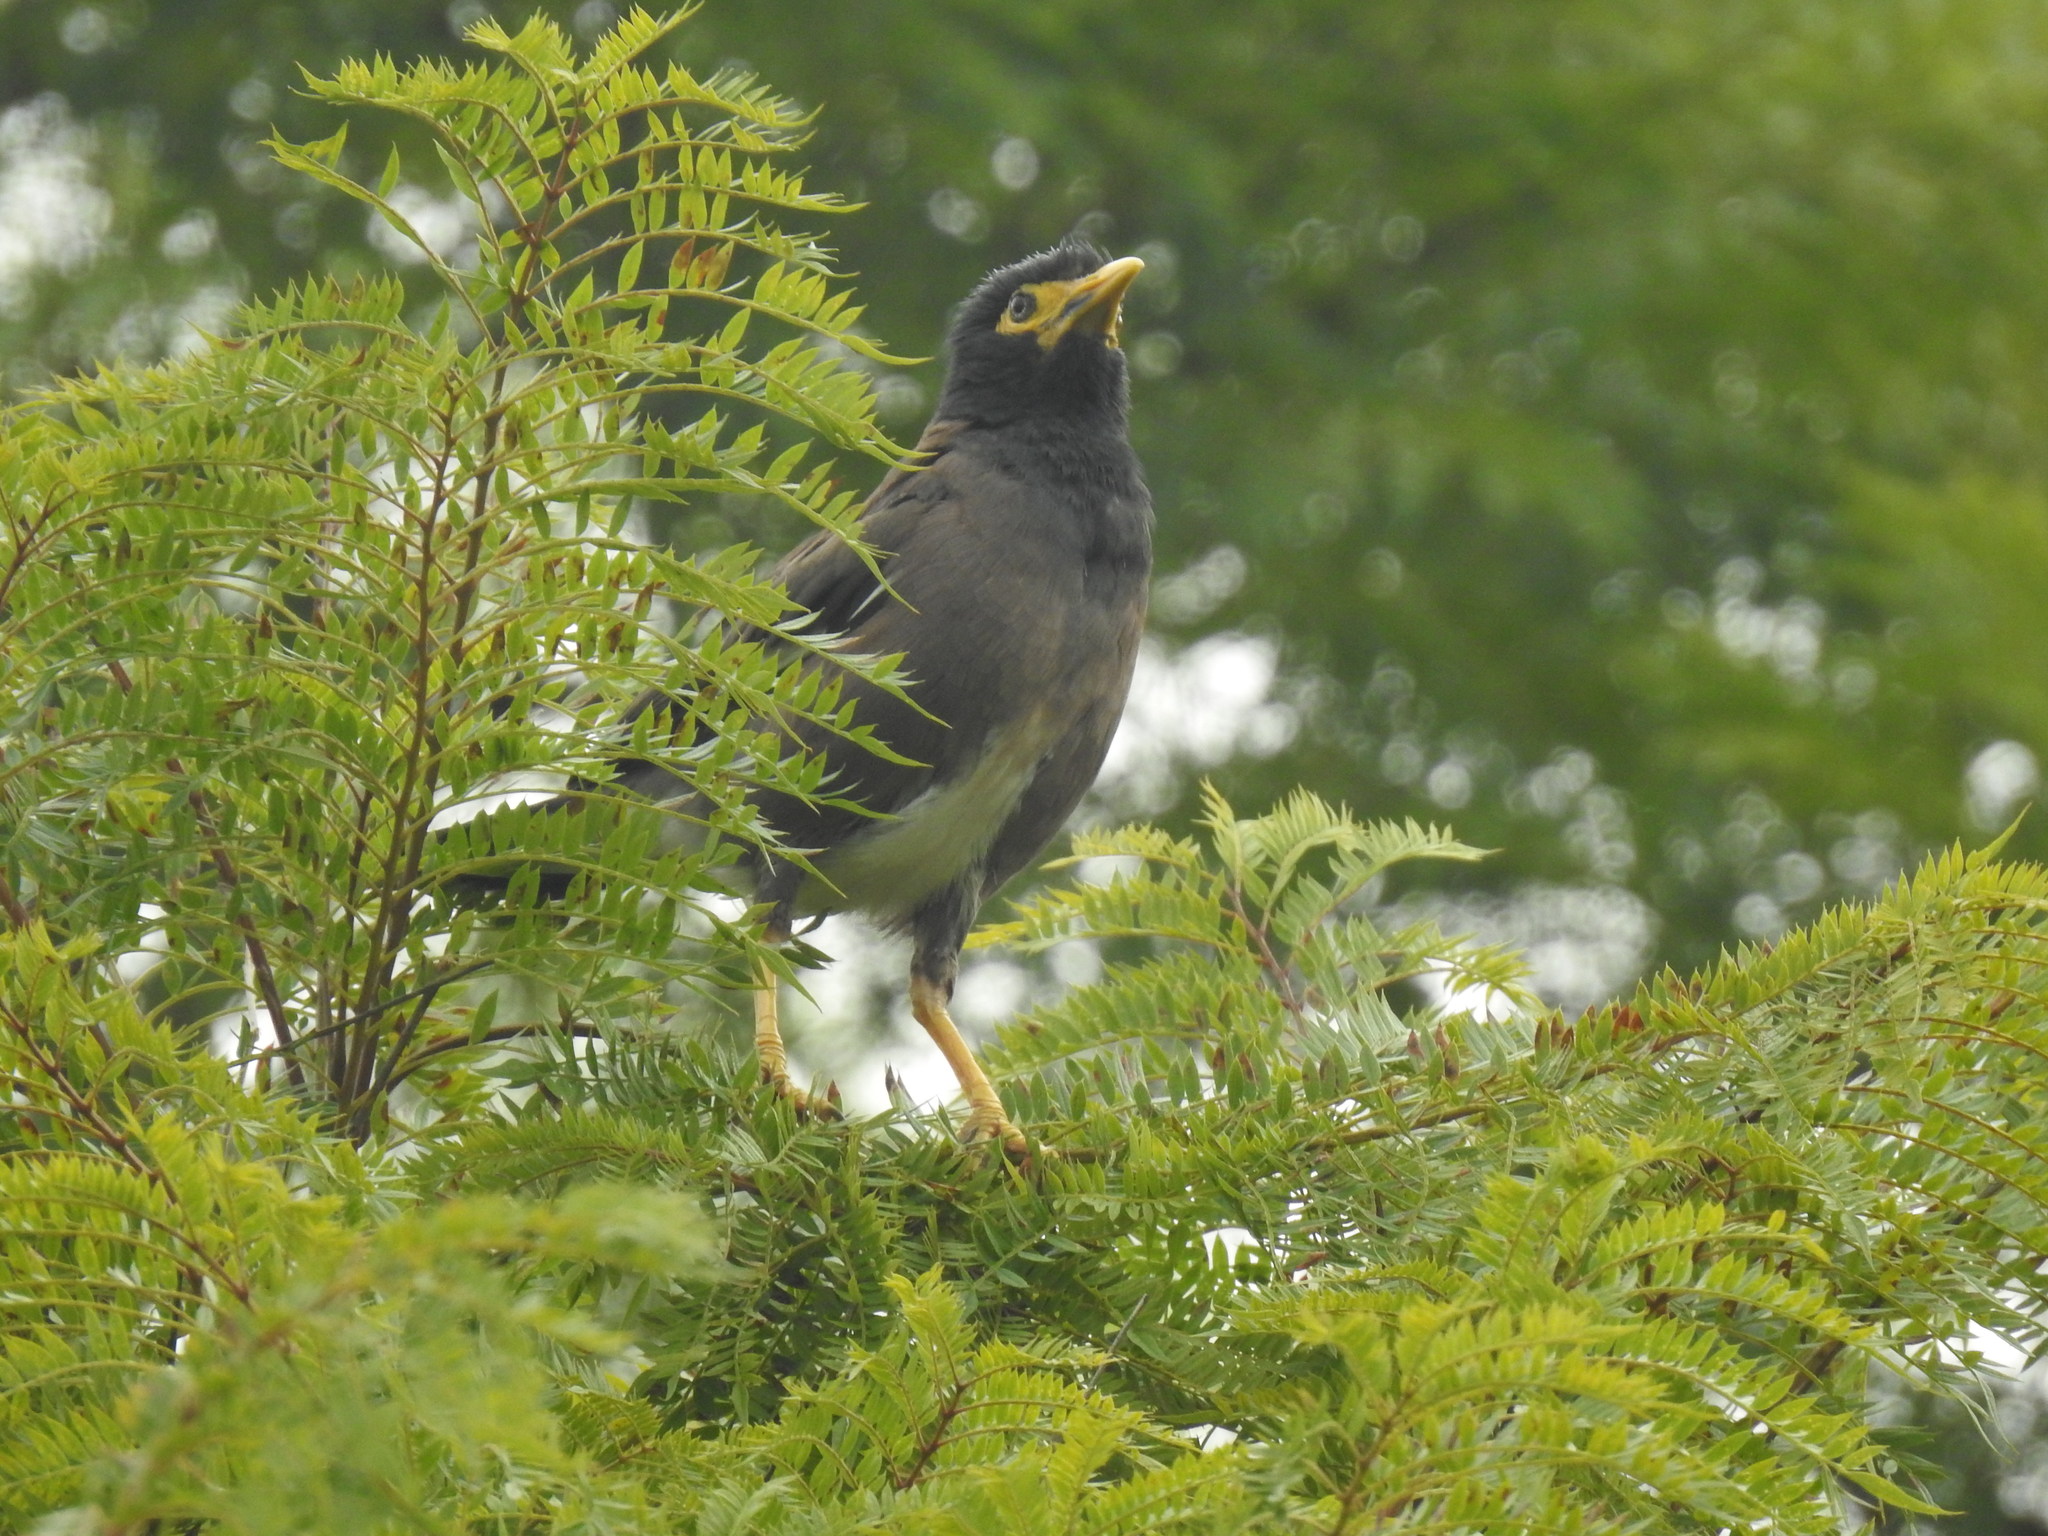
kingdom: Animalia
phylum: Chordata
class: Aves
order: Passeriformes
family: Sturnidae
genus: Acridotheres
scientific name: Acridotheres tristis
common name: Common myna
